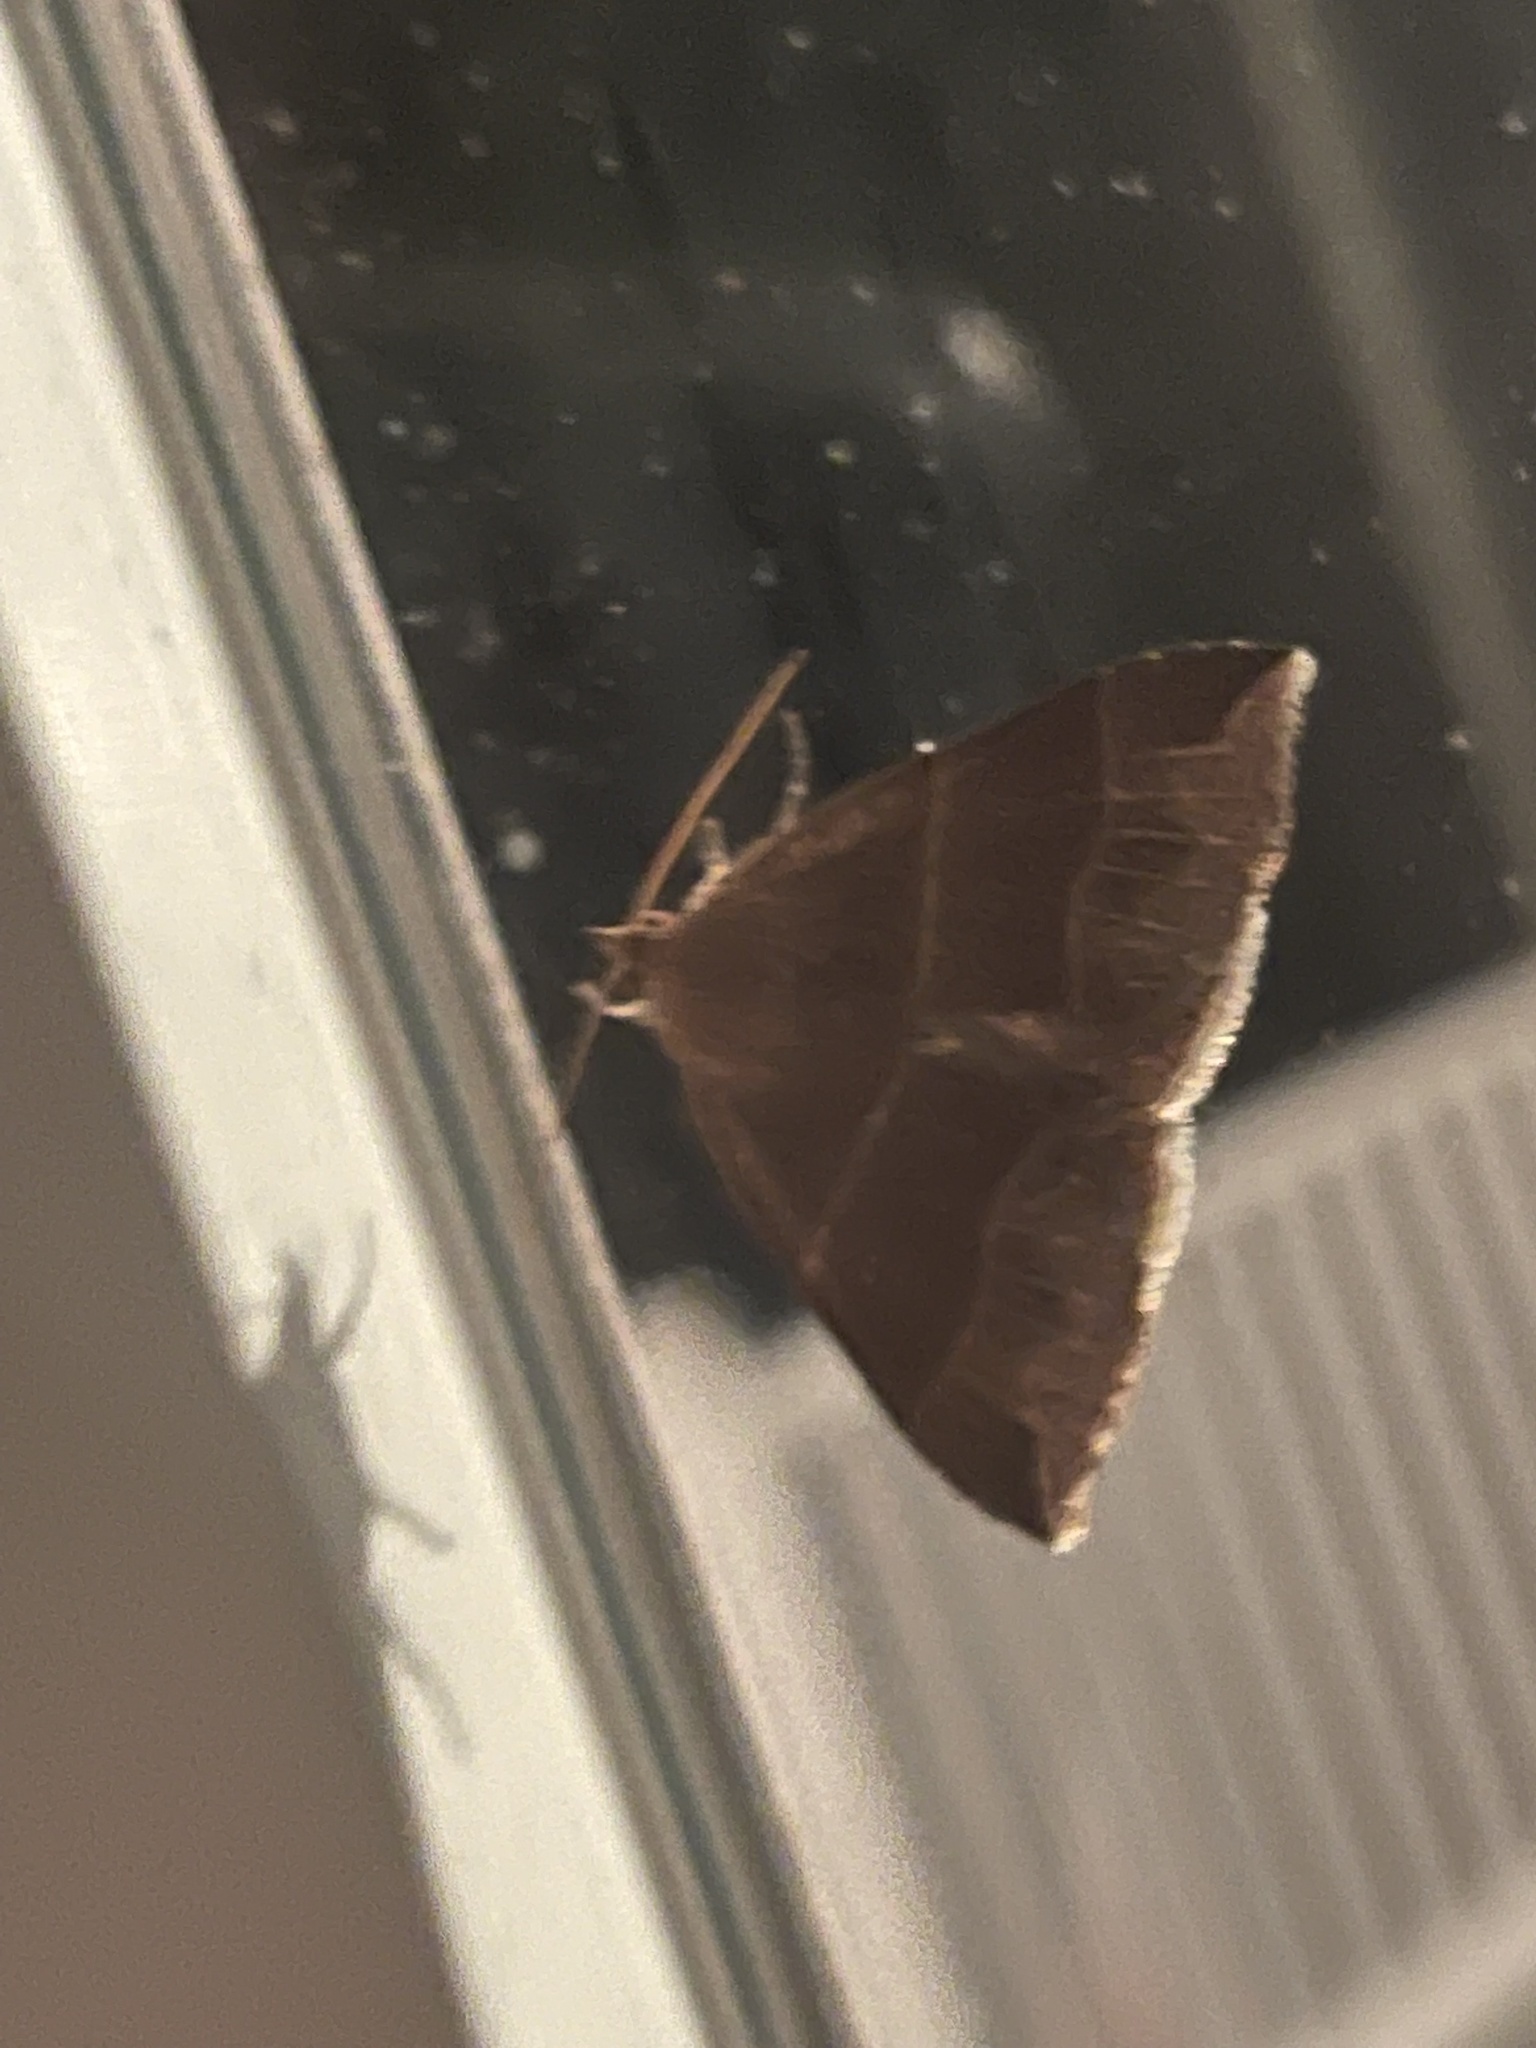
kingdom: Animalia
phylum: Arthropoda
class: Insecta
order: Lepidoptera
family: Erebidae
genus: Parallelia
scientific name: Parallelia bistriaris
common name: Maple looper moth
